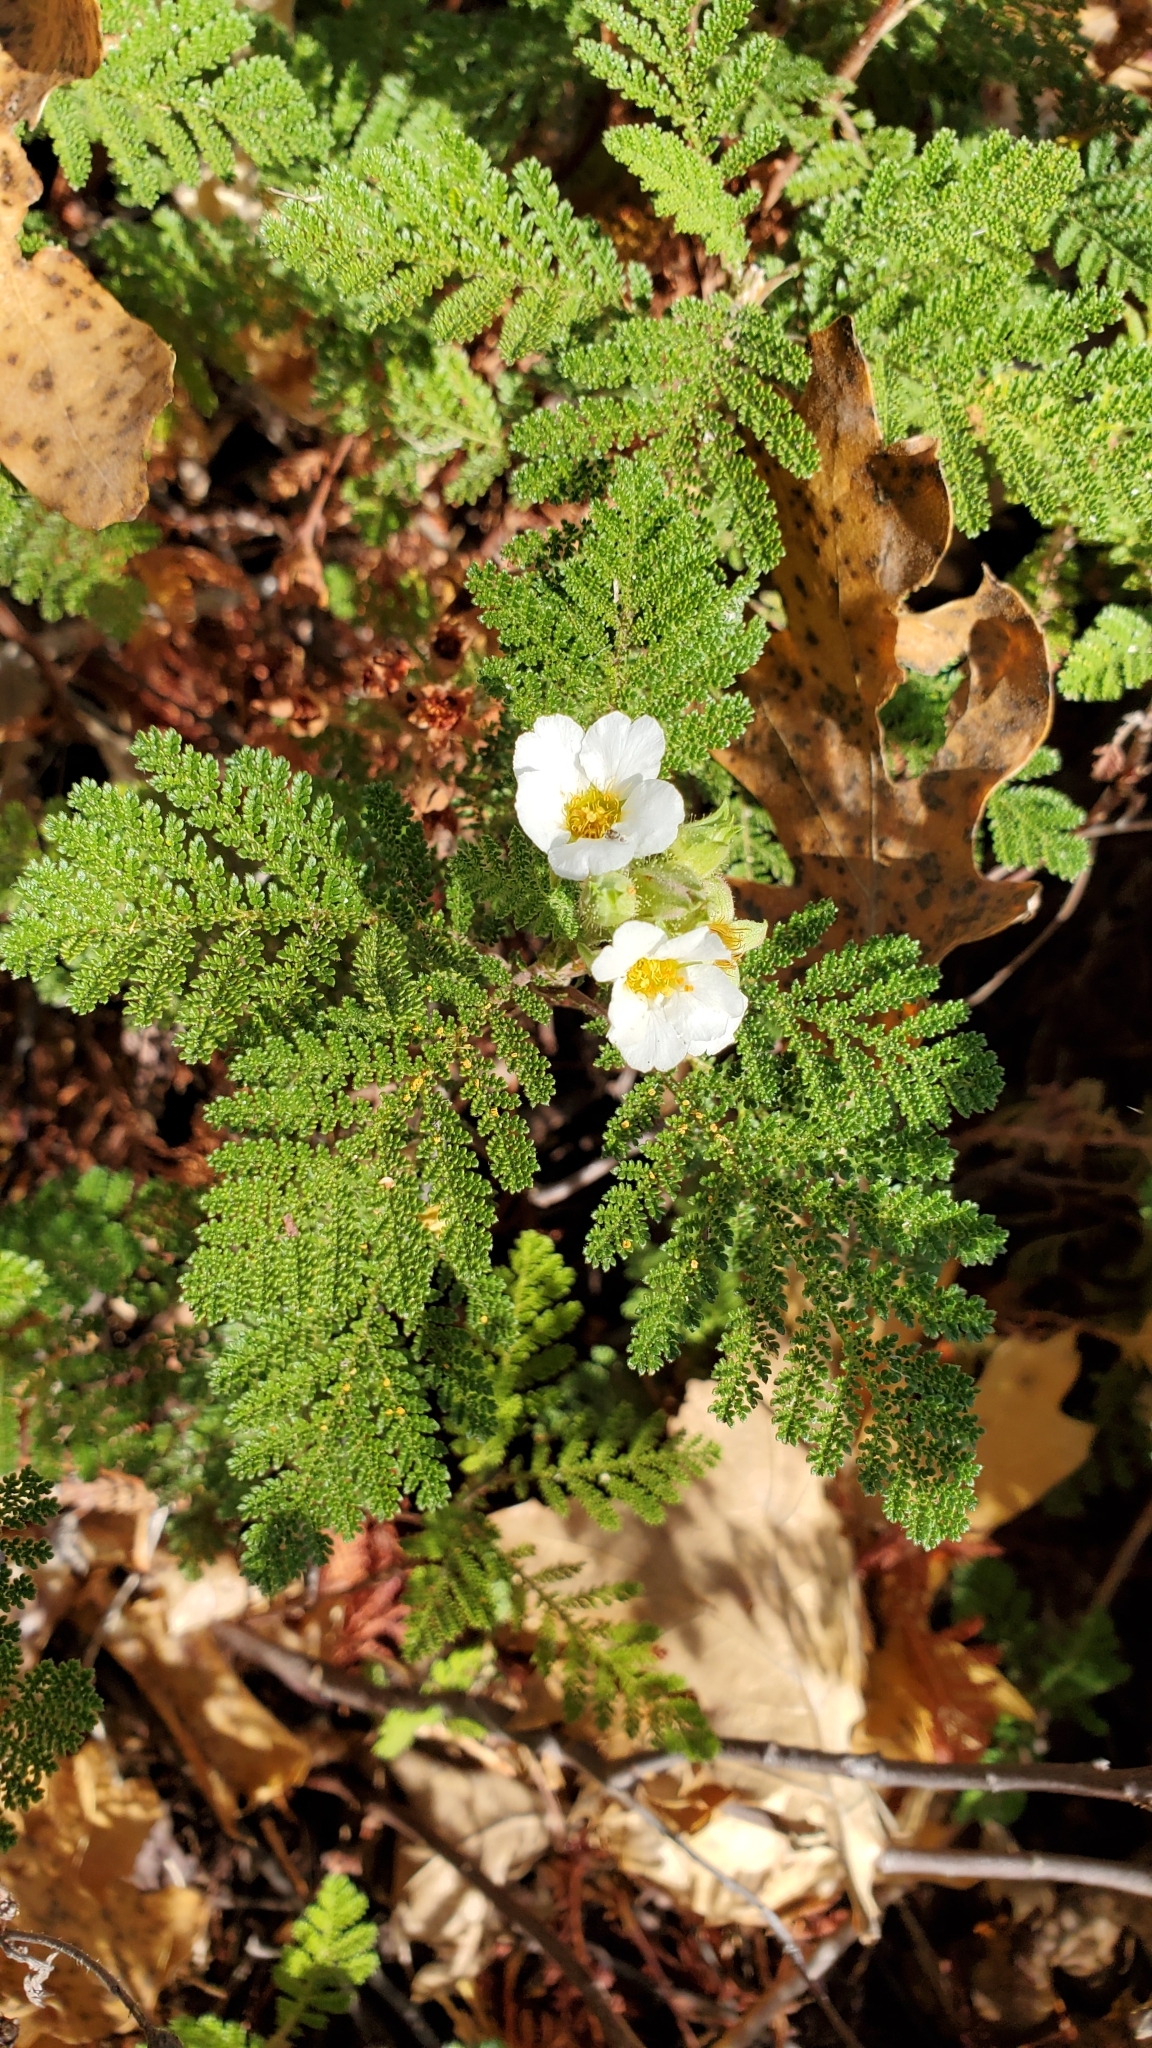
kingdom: Plantae
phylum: Tracheophyta
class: Magnoliopsida
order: Rosales
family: Rosaceae
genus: Chamaebatia
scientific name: Chamaebatia foliolosa
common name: Mountain misery
